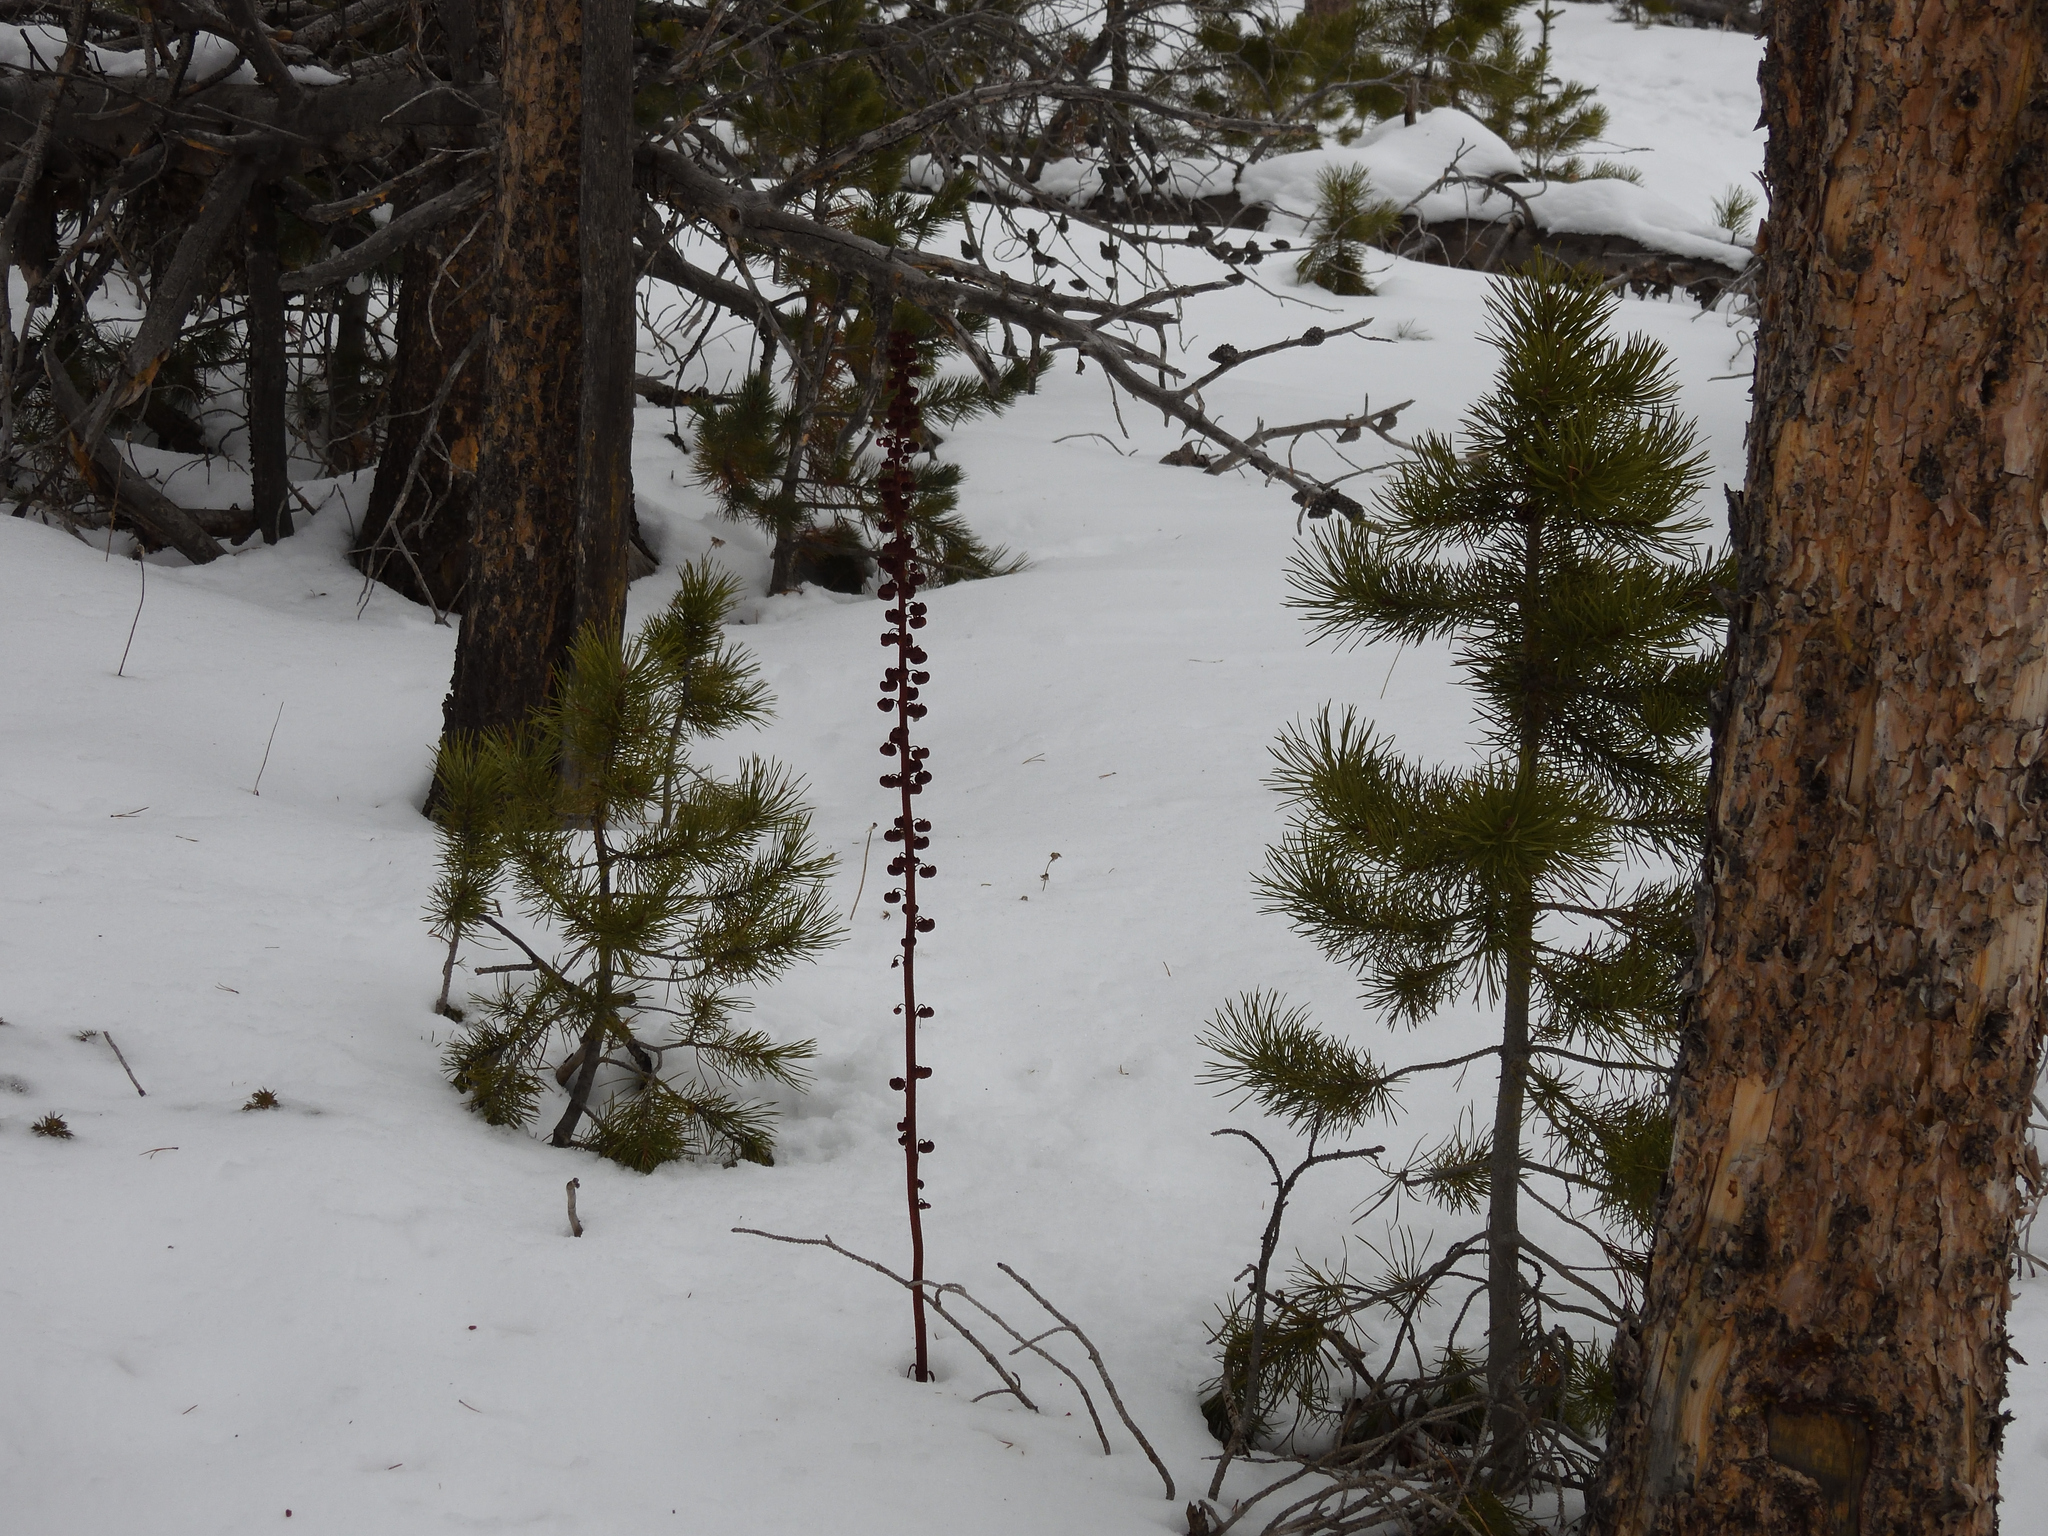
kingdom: Plantae
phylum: Tracheophyta
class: Magnoliopsida
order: Ericales
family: Ericaceae
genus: Pterospora
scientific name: Pterospora andromedea
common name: Giant bird's-nest
